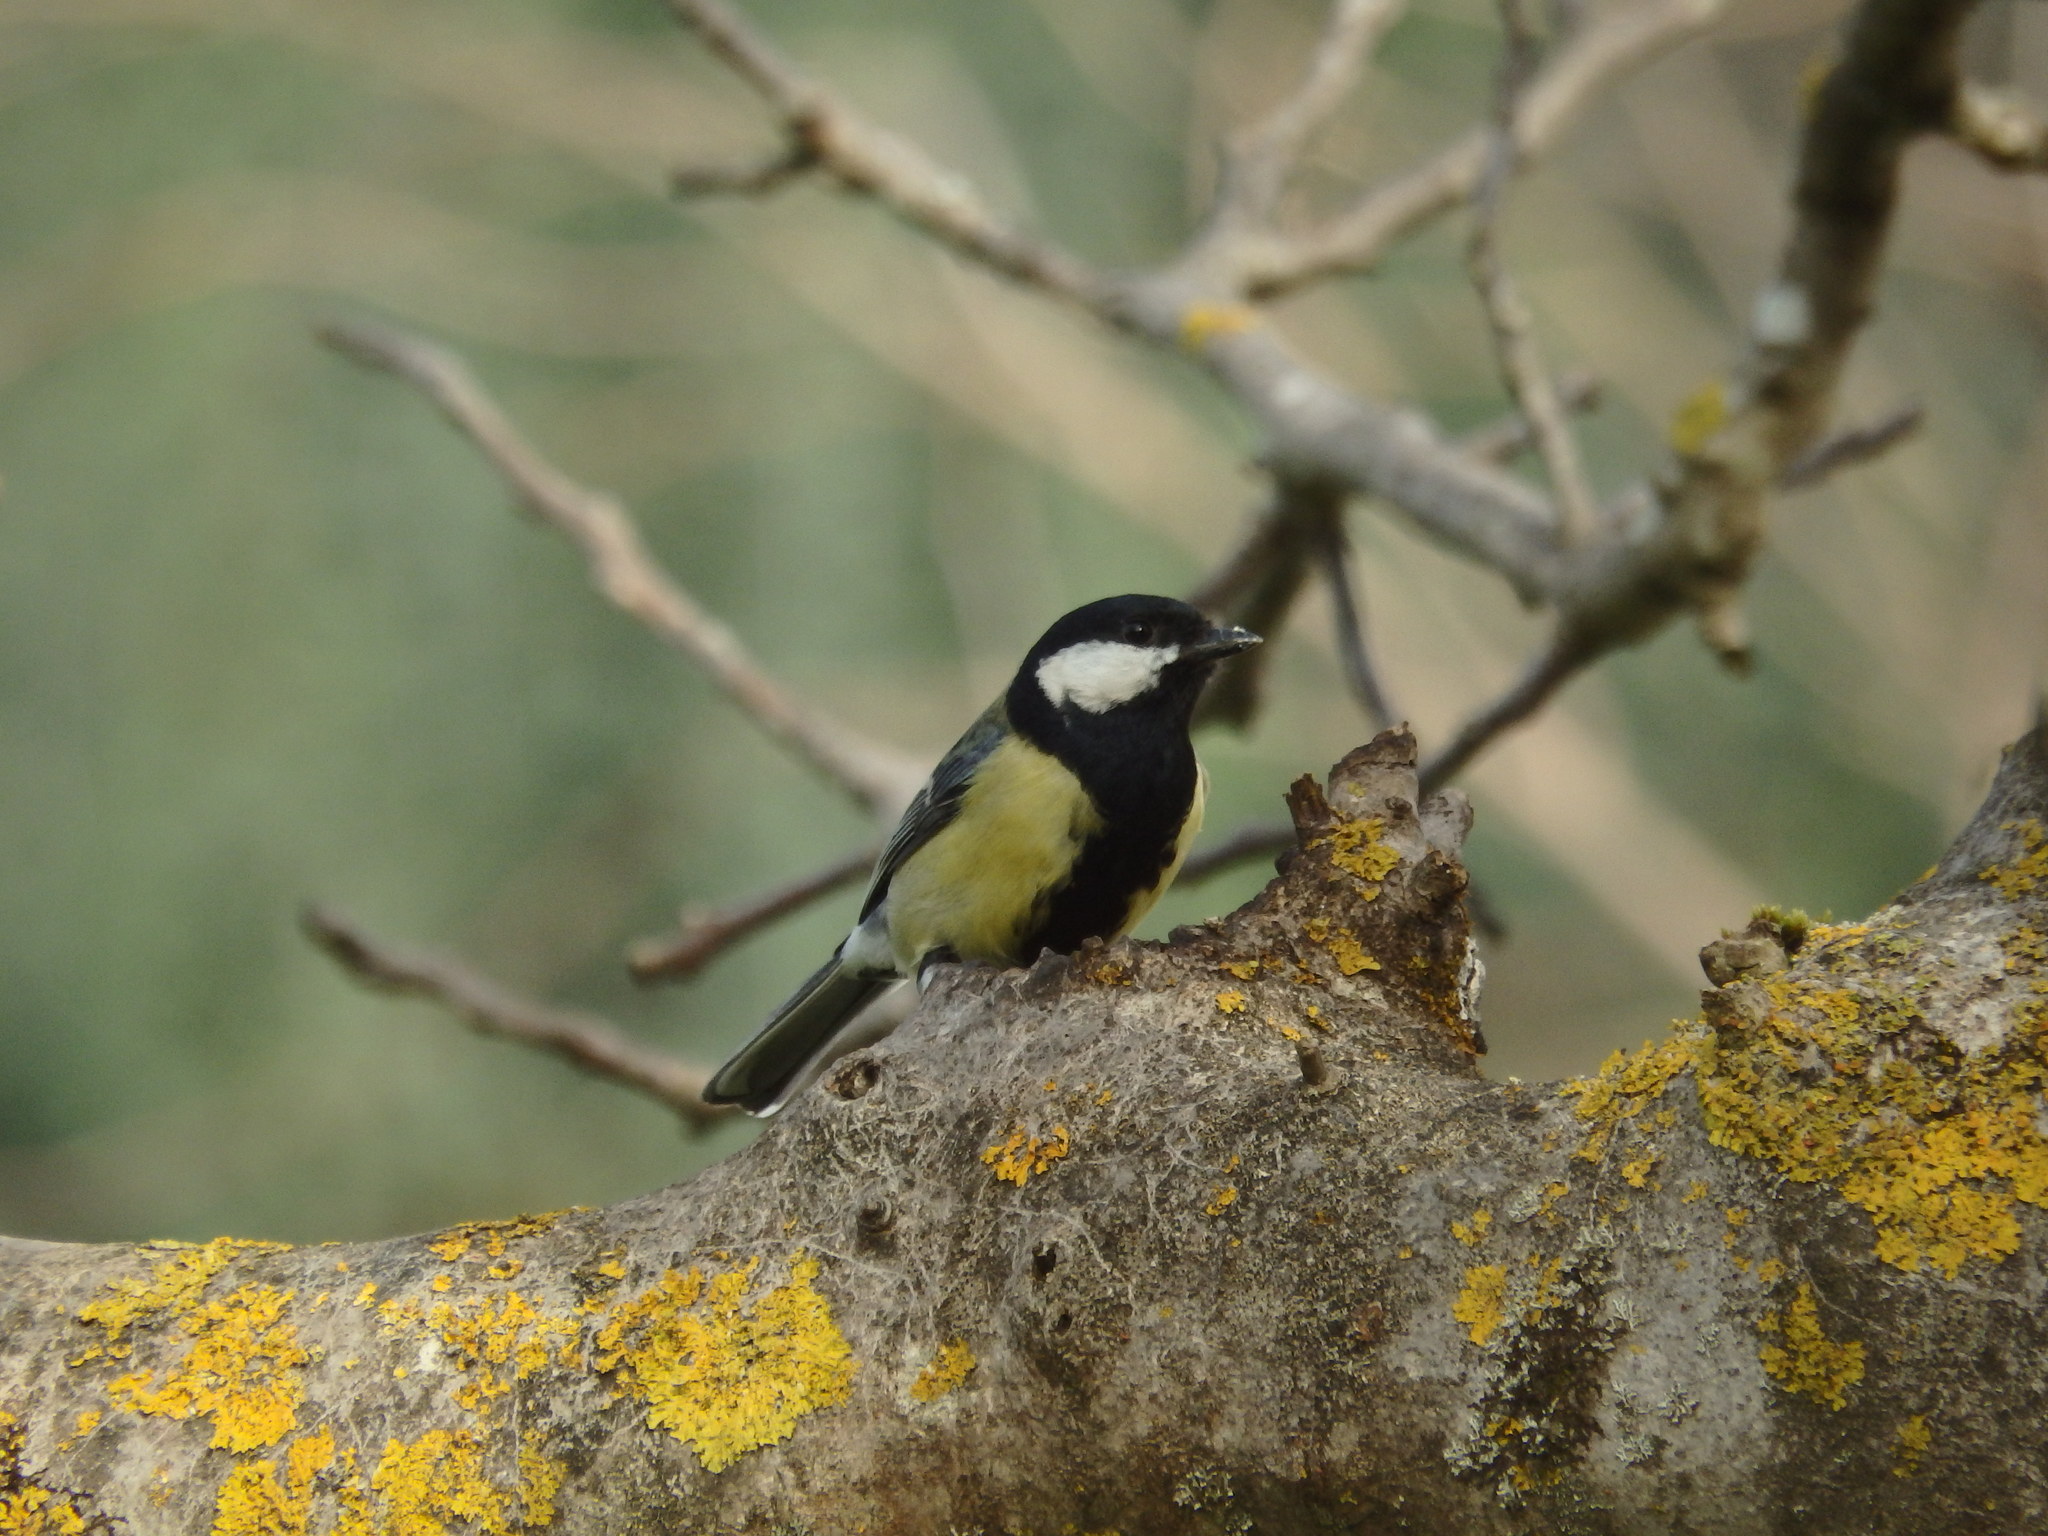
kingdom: Animalia
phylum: Chordata
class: Aves
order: Passeriformes
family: Paridae
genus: Parus
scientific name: Parus major
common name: Great tit
